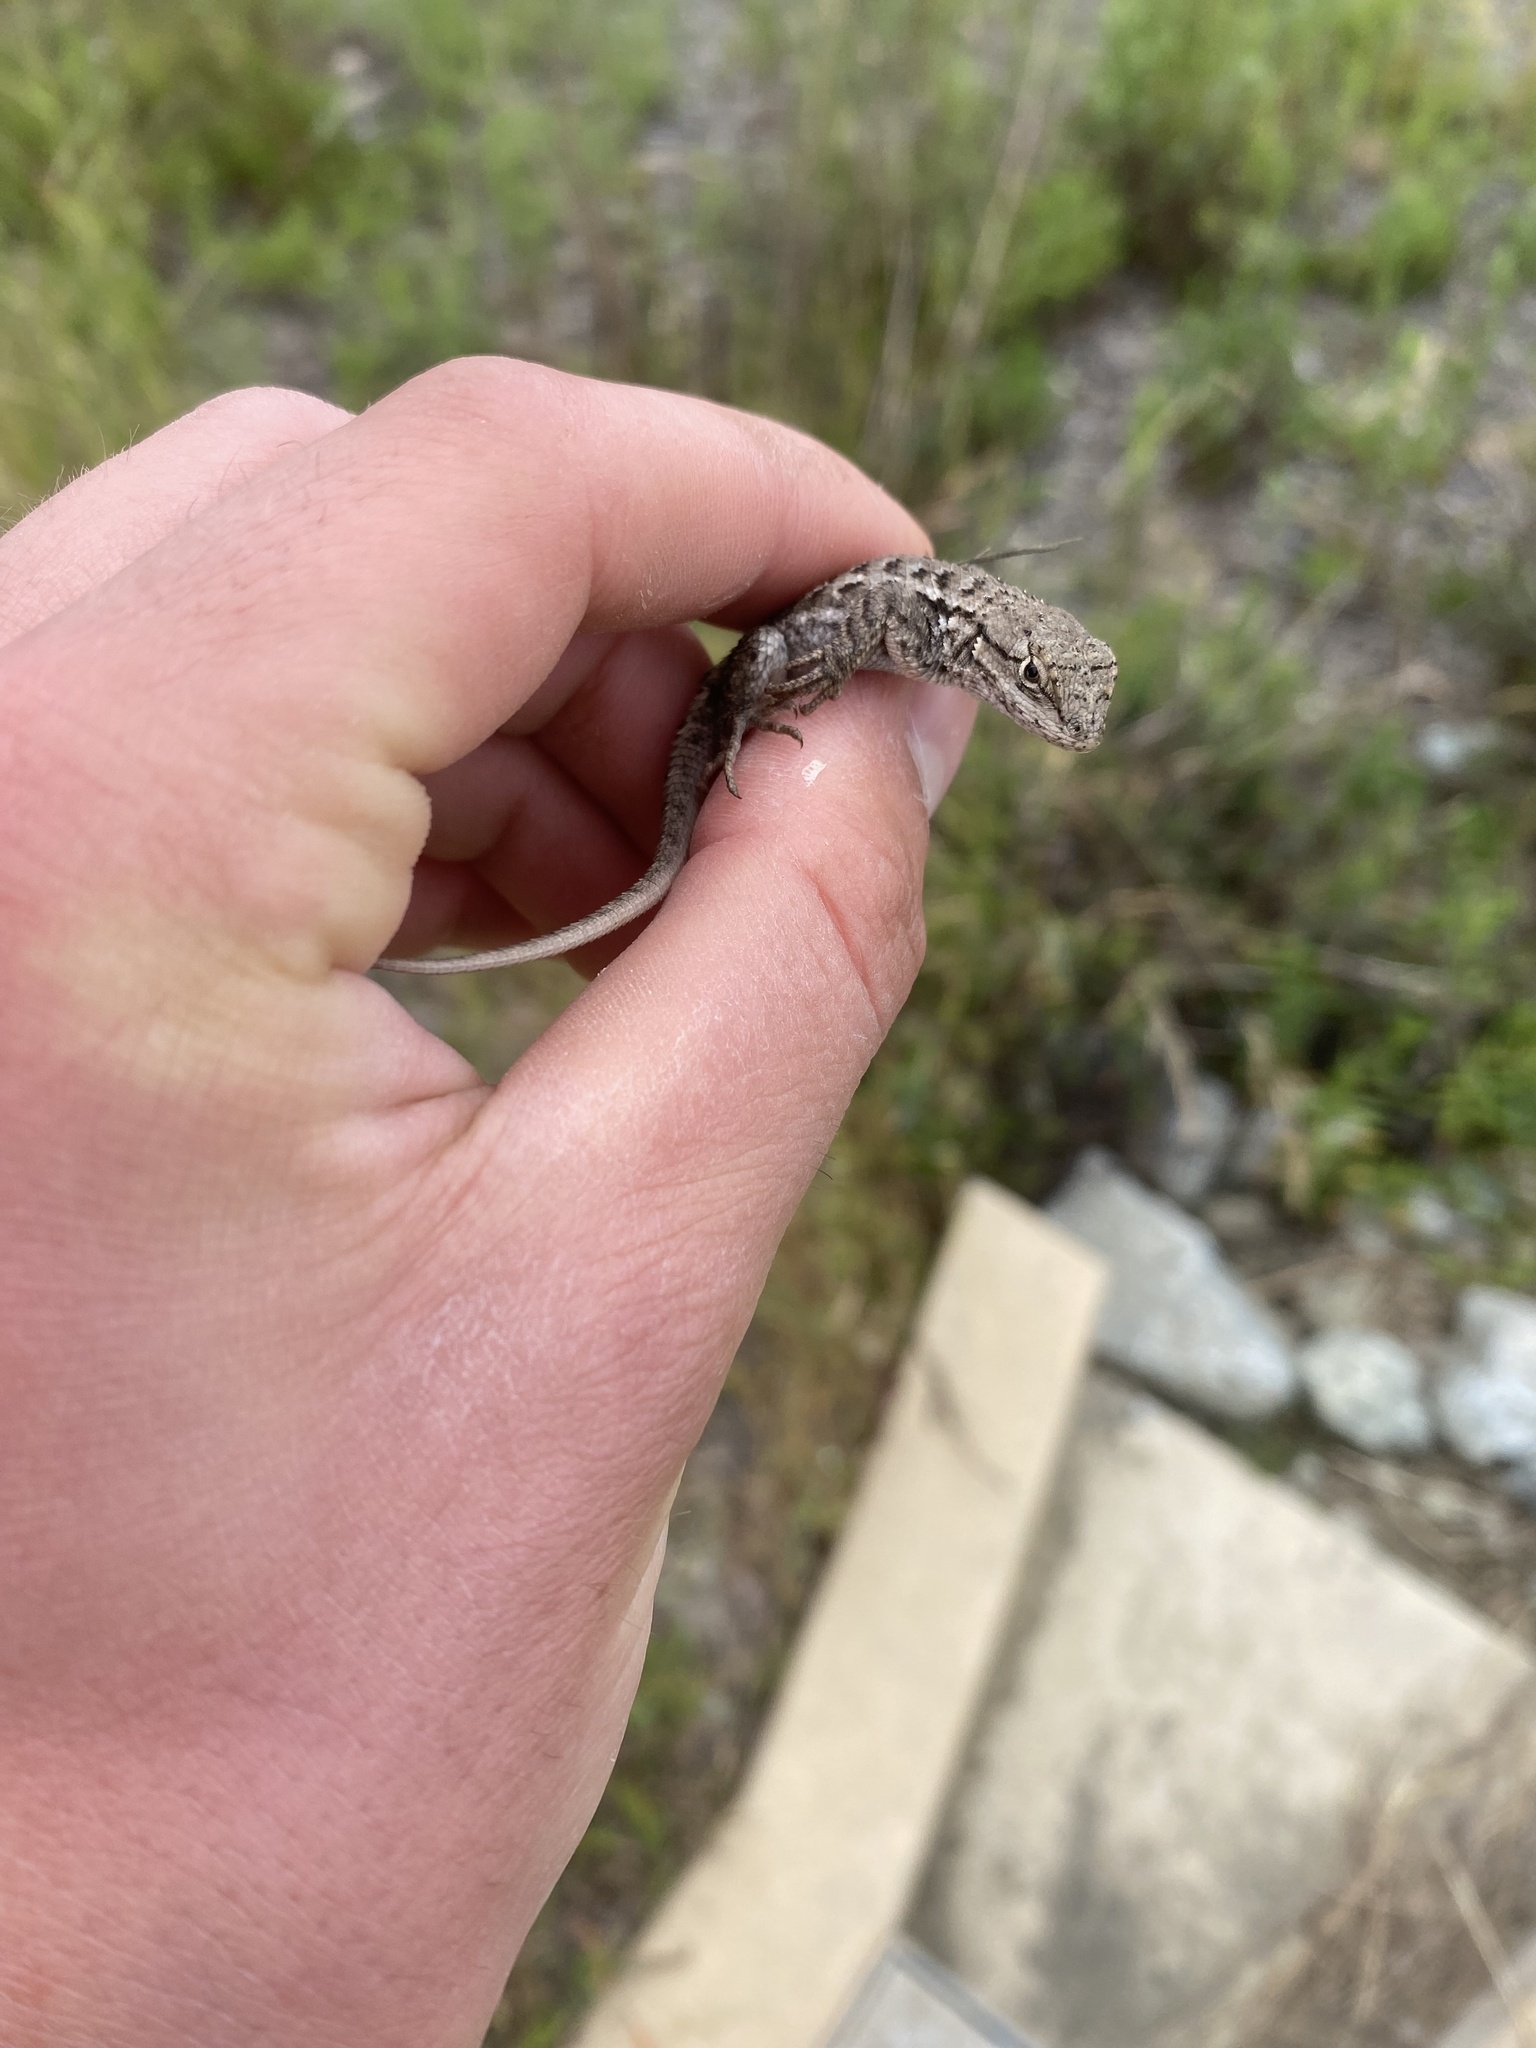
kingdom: Animalia
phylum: Chordata
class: Squamata
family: Phrynosomatidae
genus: Sceloporus
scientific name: Sceloporus occidentalis
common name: Western fence lizard
